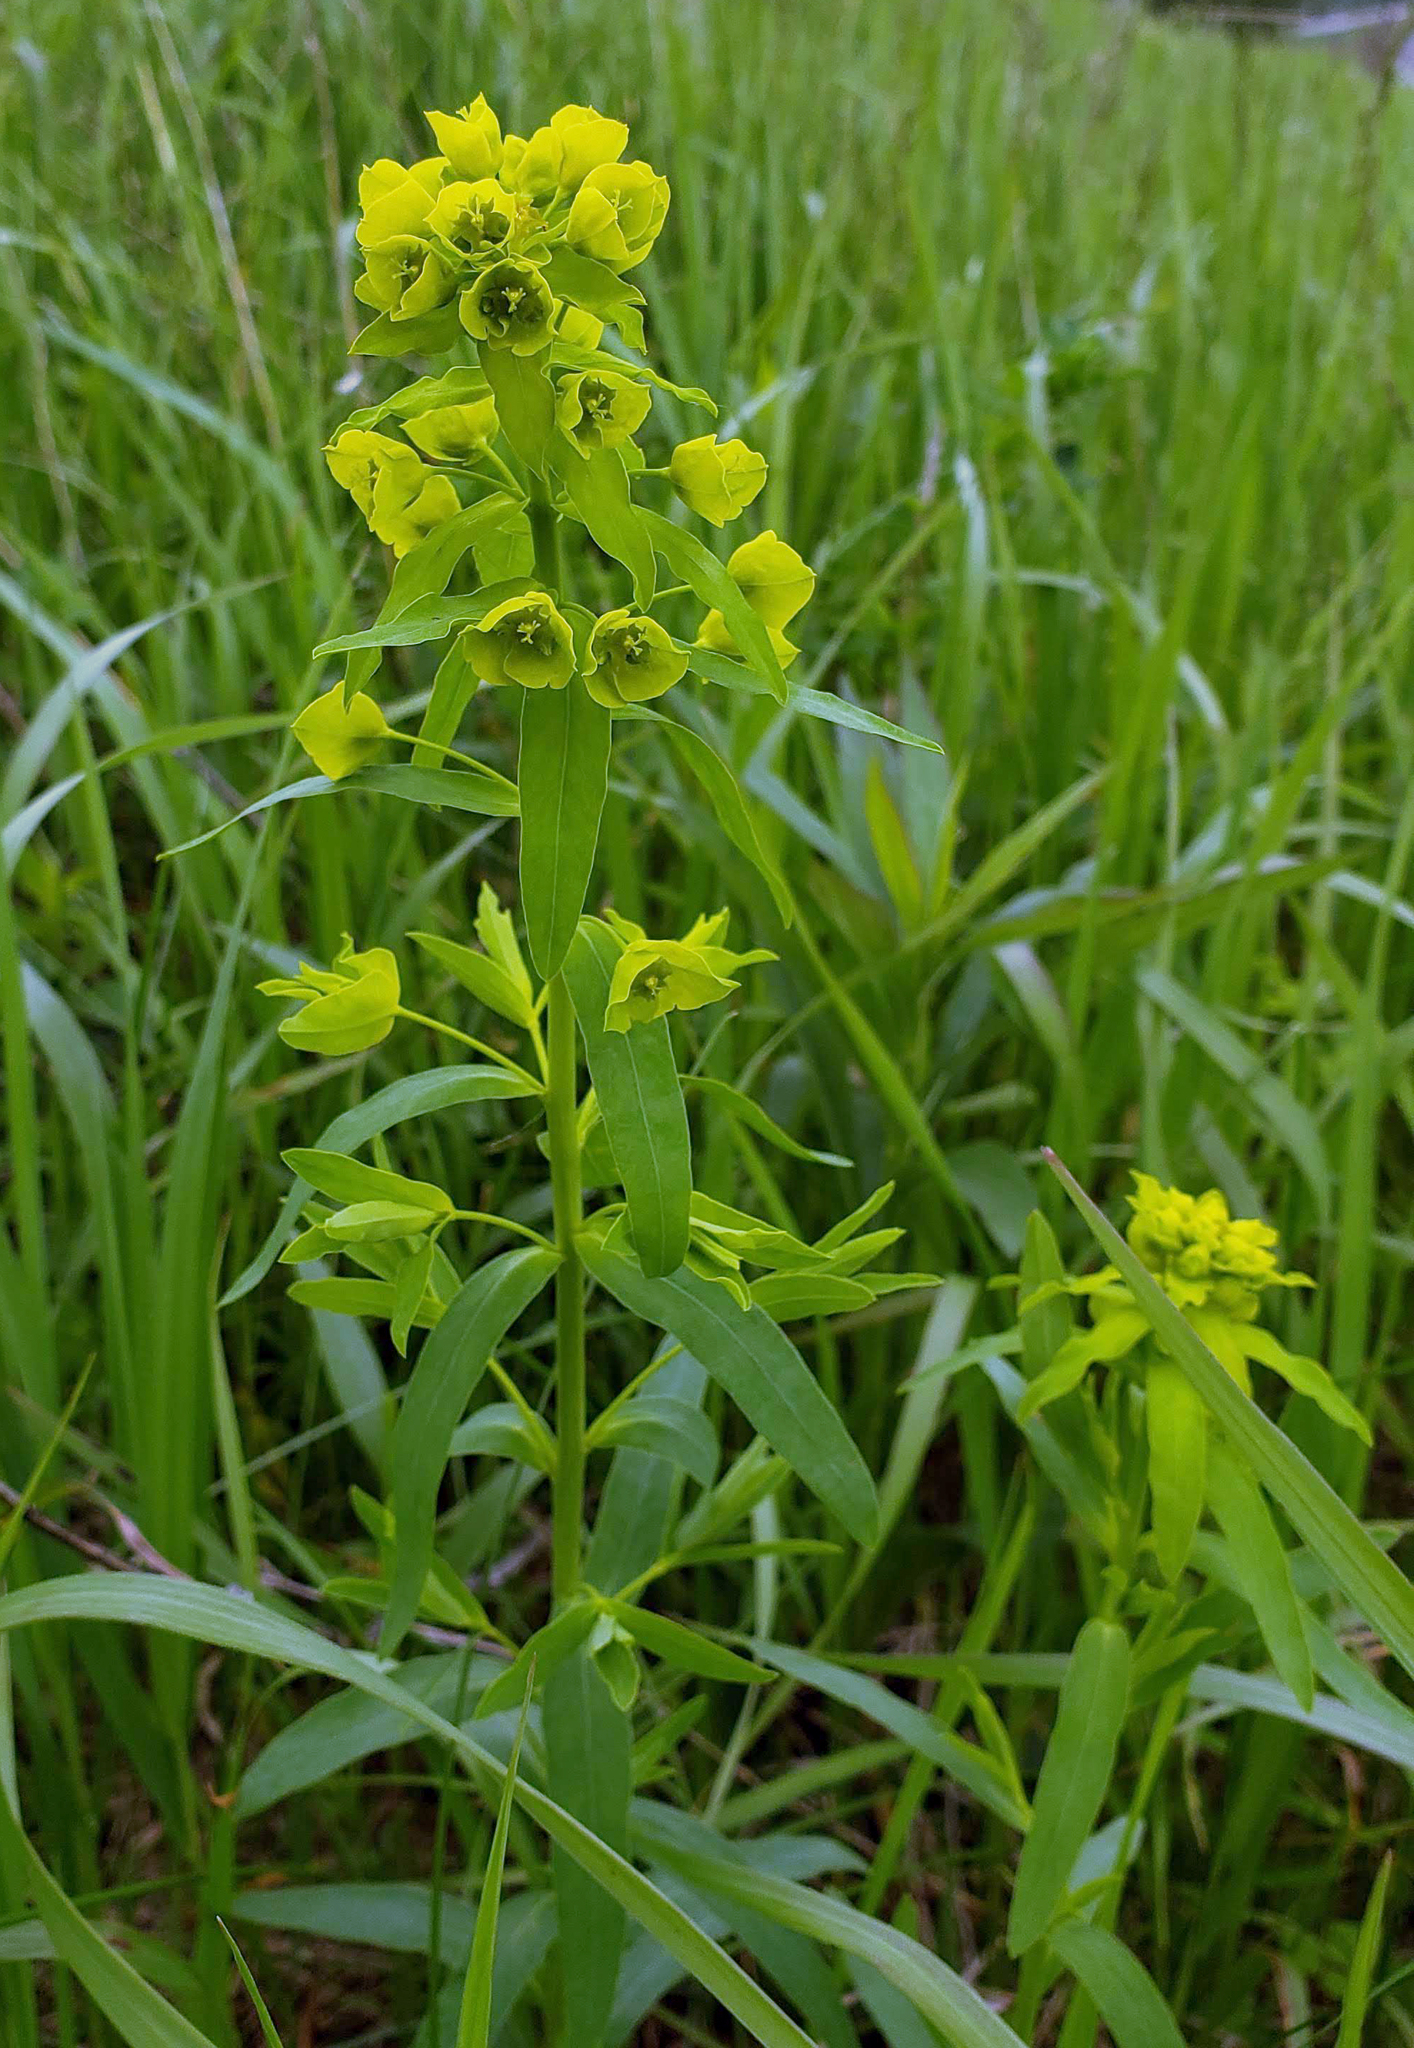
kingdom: Plantae
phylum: Tracheophyta
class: Magnoliopsida
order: Malpighiales
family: Euphorbiaceae
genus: Euphorbia
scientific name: Euphorbia virgata
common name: Leafy spurge
